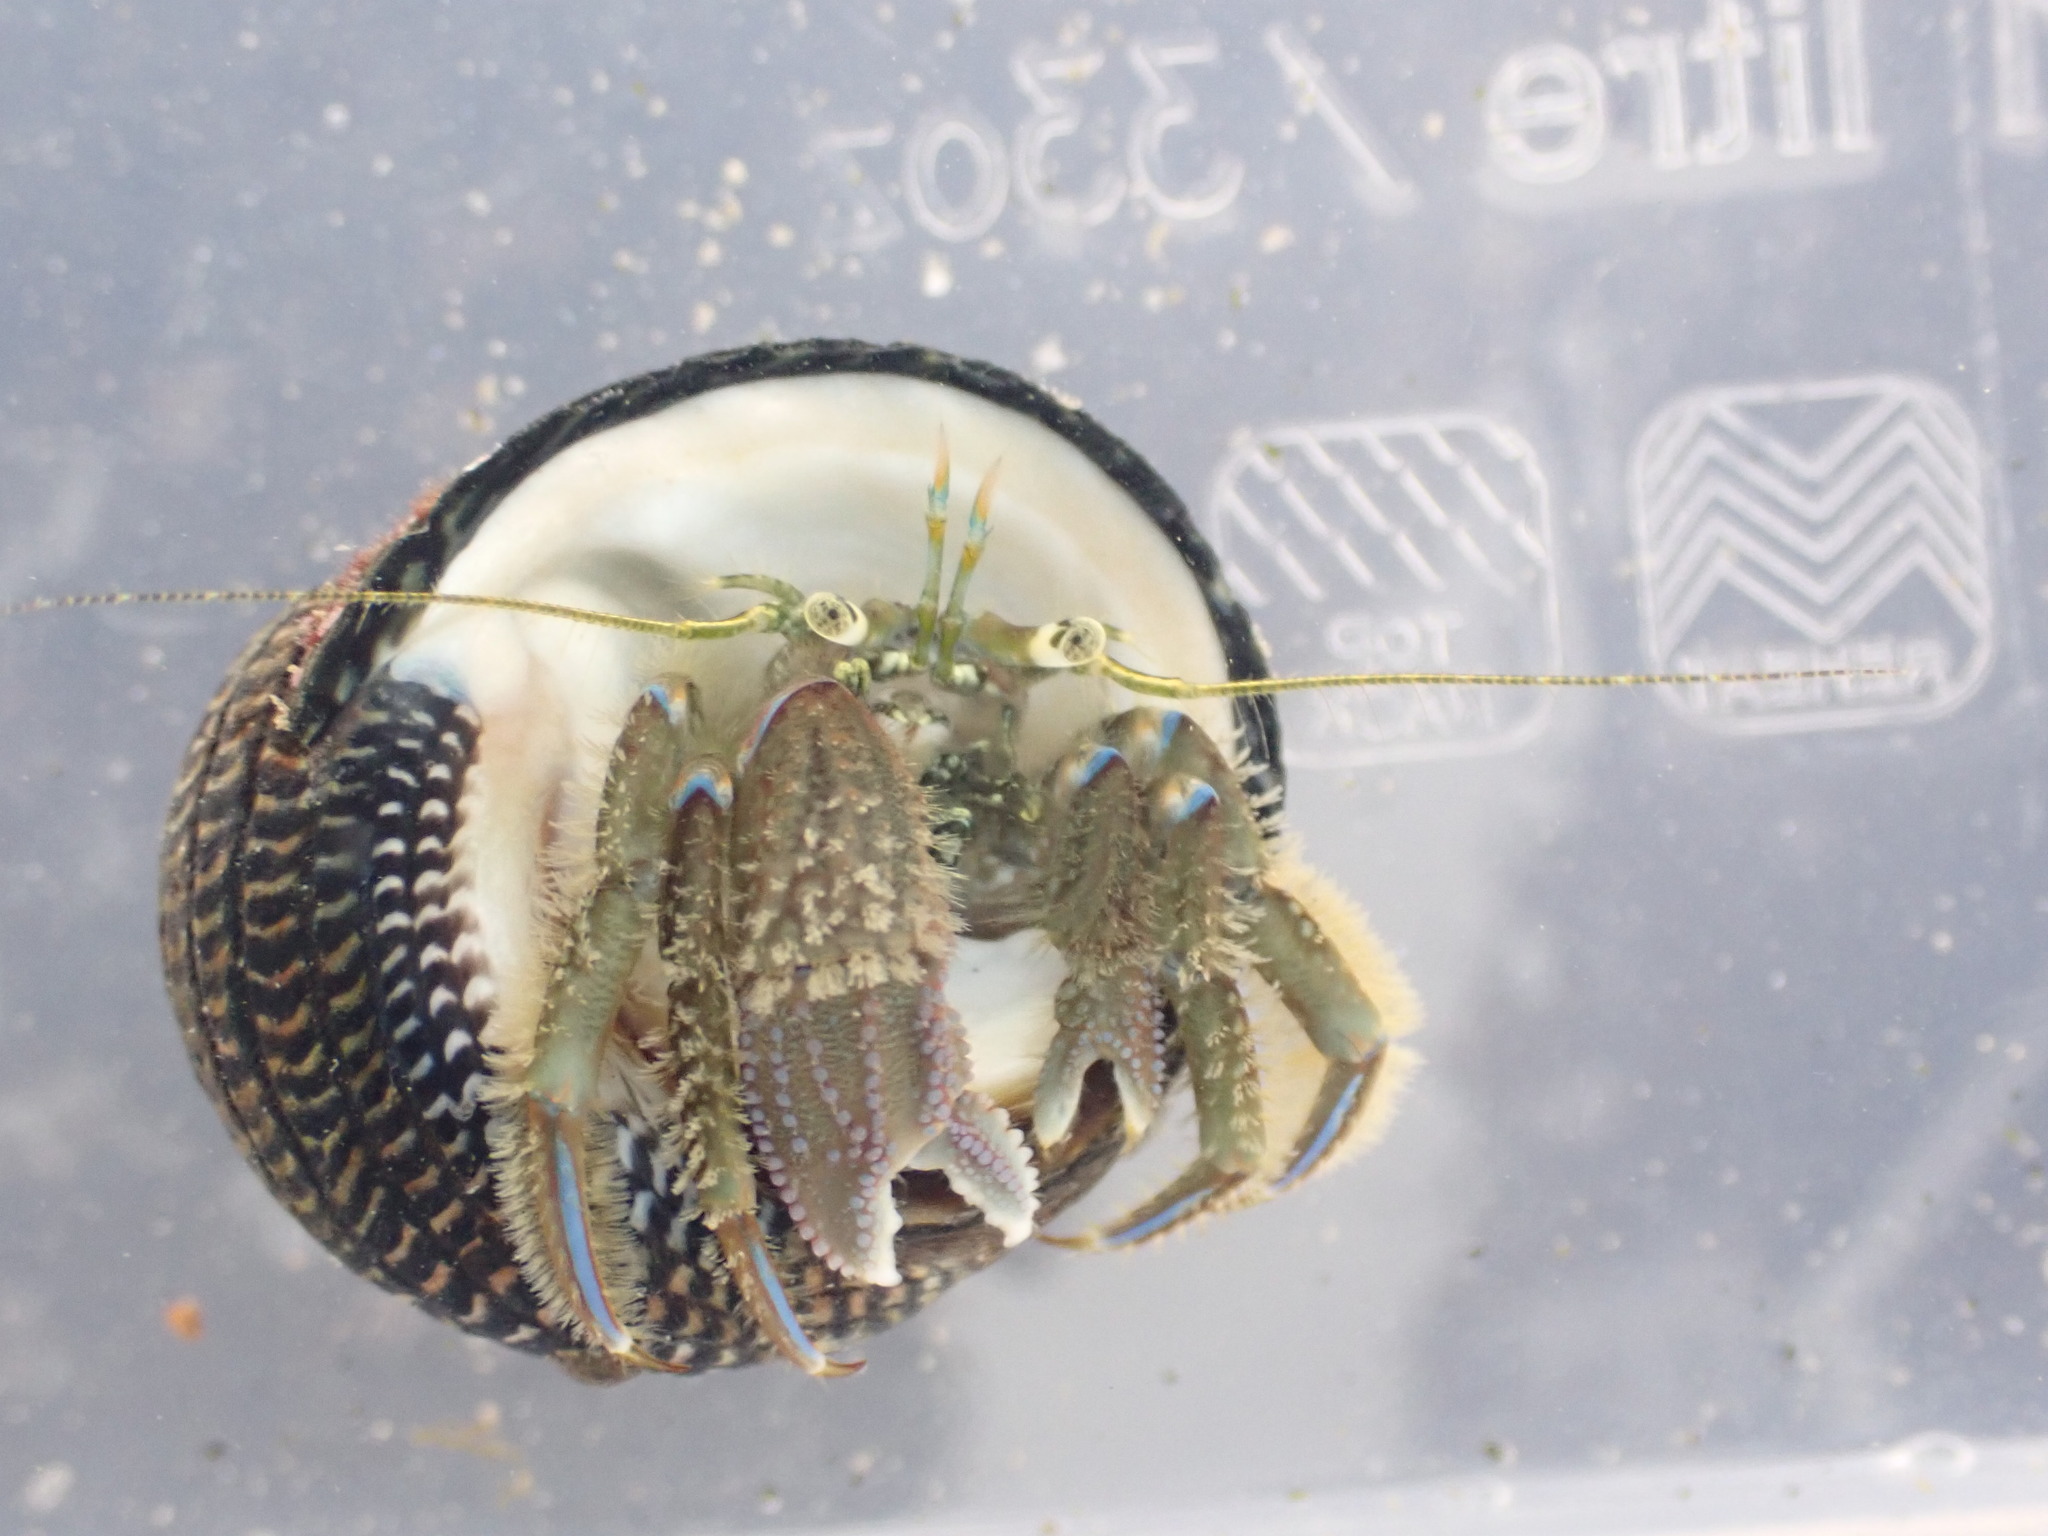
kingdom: Animalia
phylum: Arthropoda
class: Malacostraca
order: Decapoda
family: Paguridae
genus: Pagurus
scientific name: Pagurus novizealandiae
